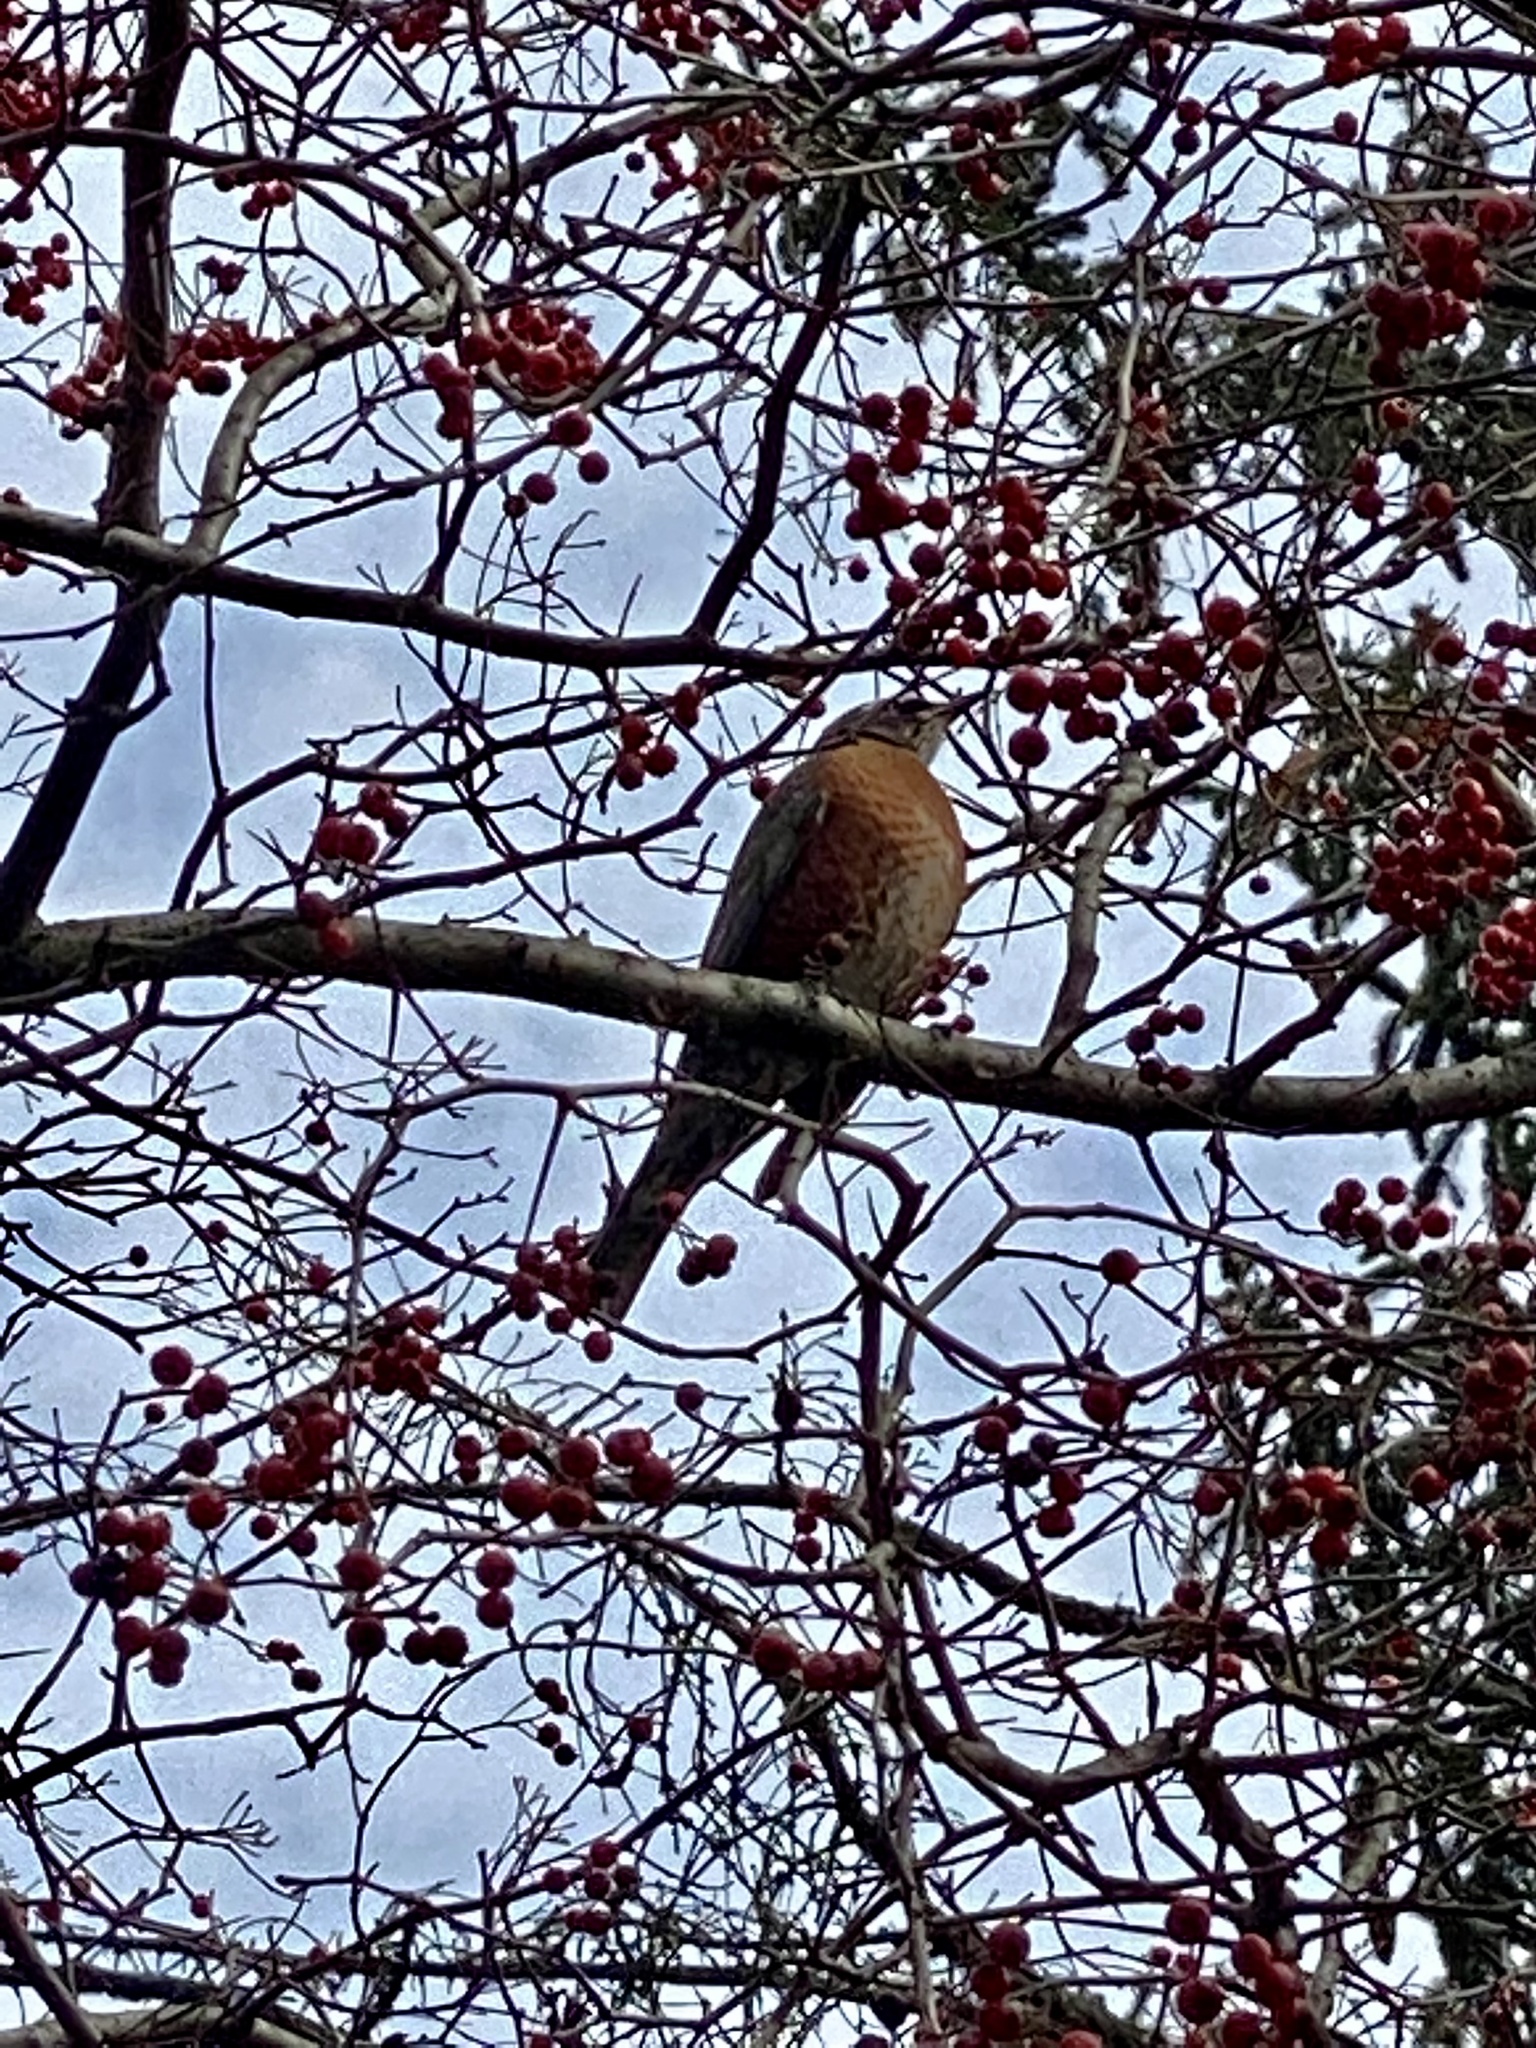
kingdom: Animalia
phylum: Chordata
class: Aves
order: Passeriformes
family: Turdidae
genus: Turdus
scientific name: Turdus migratorius
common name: American robin
